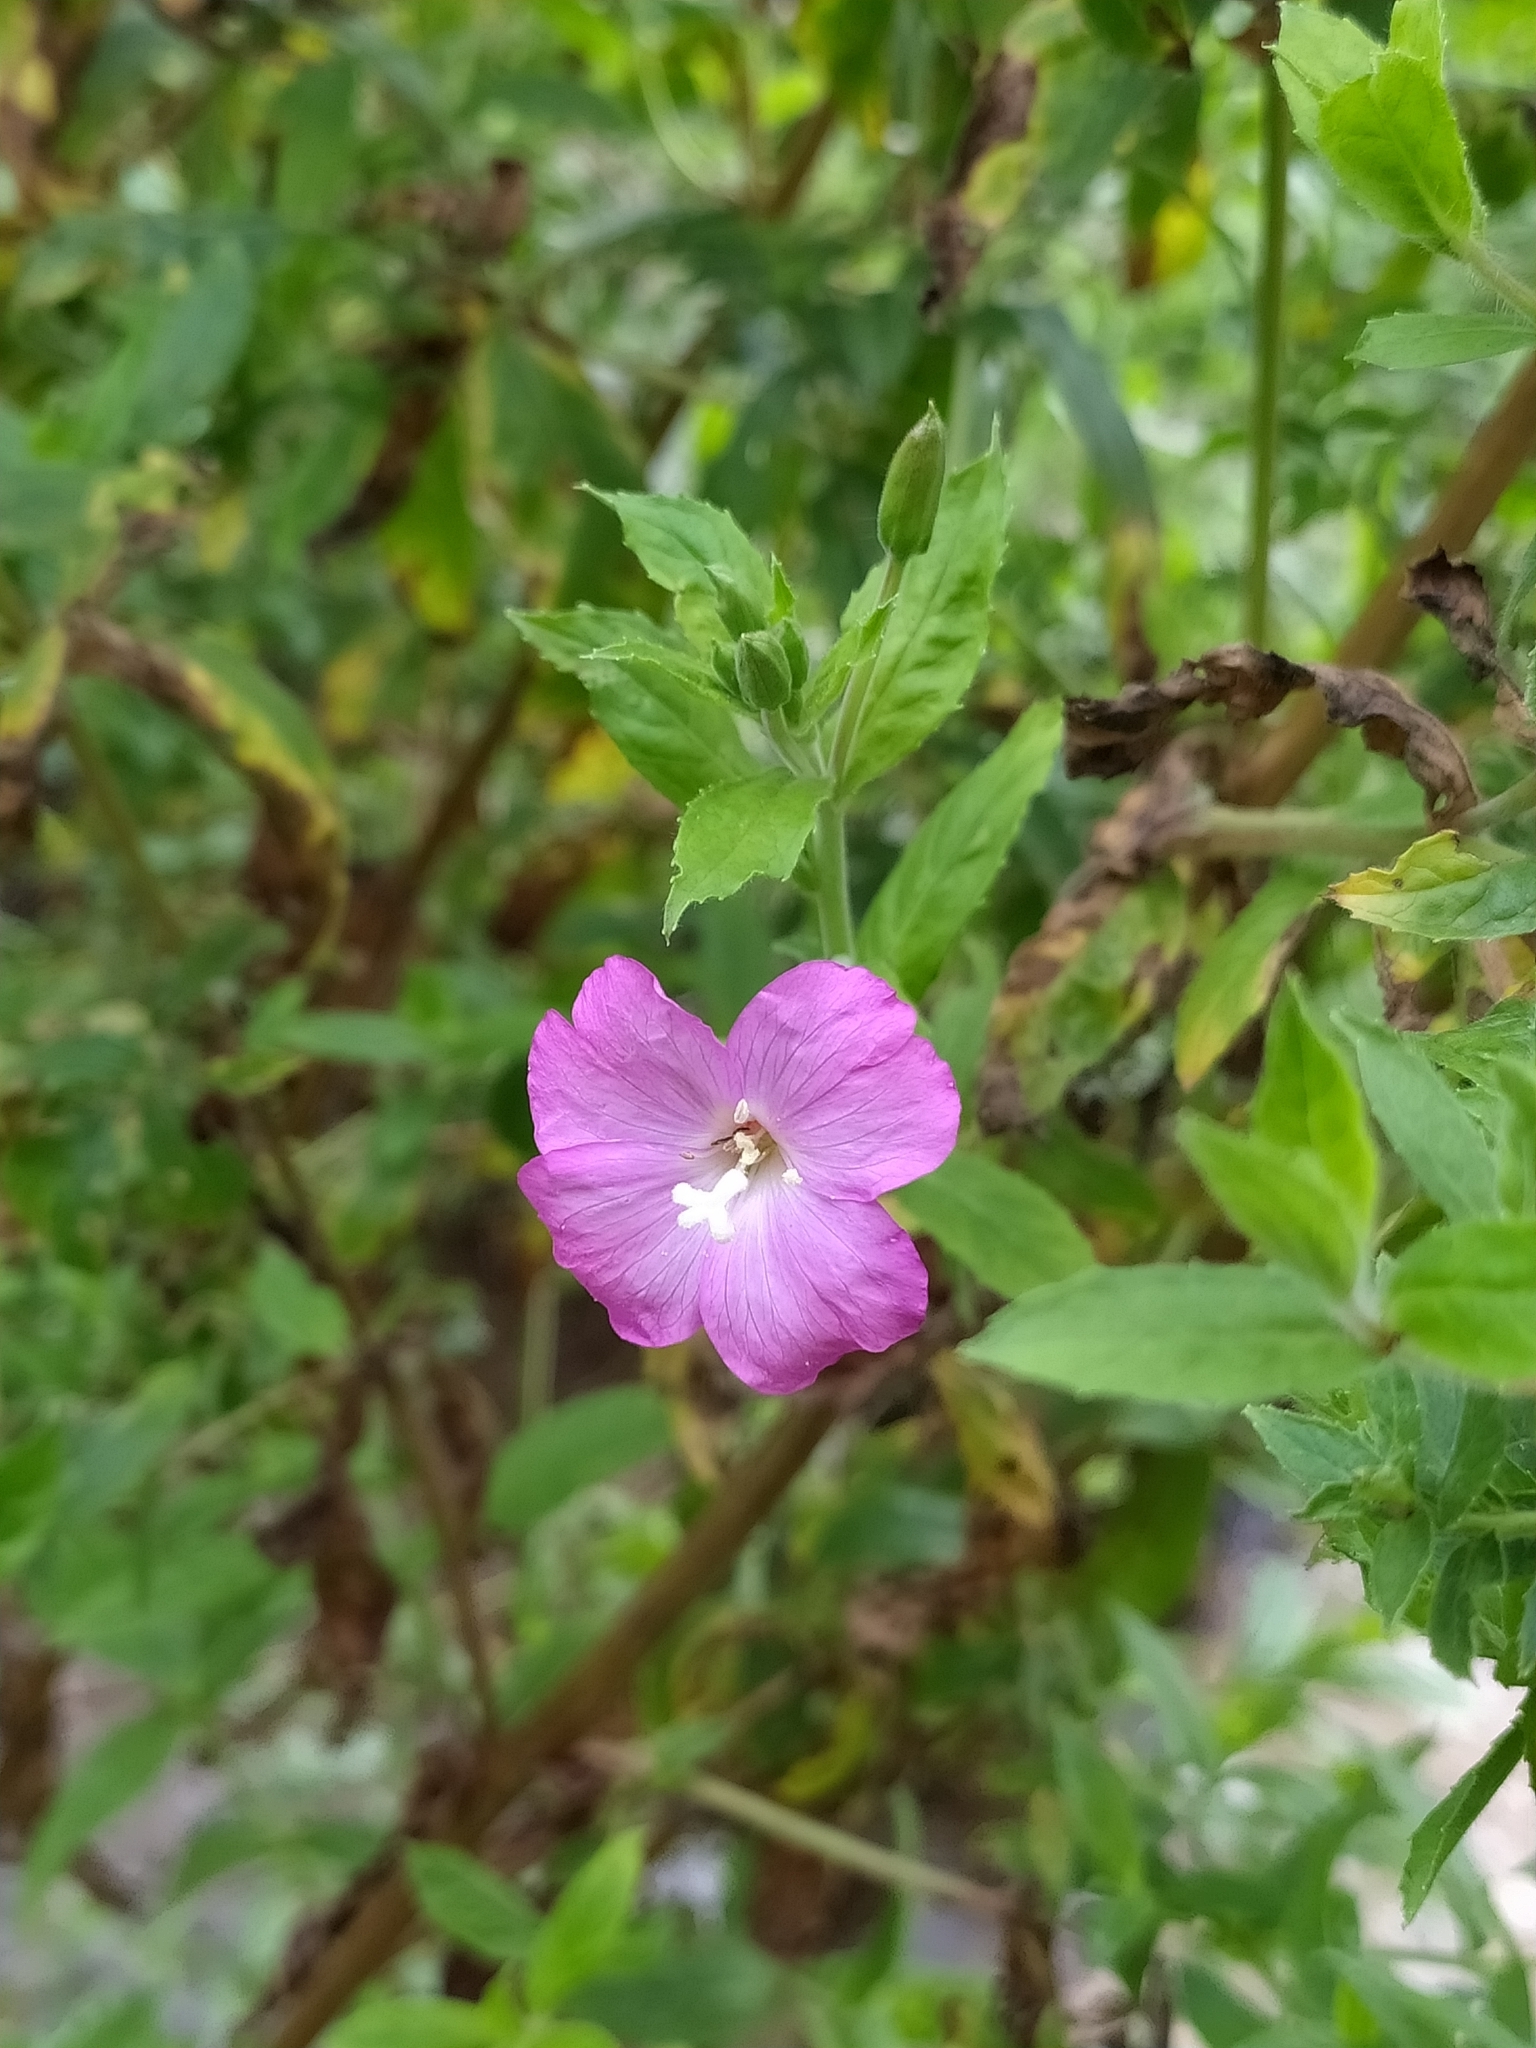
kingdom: Plantae
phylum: Tracheophyta
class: Magnoliopsida
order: Myrtales
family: Onagraceae
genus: Epilobium
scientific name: Epilobium hirsutum
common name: Great willowherb
